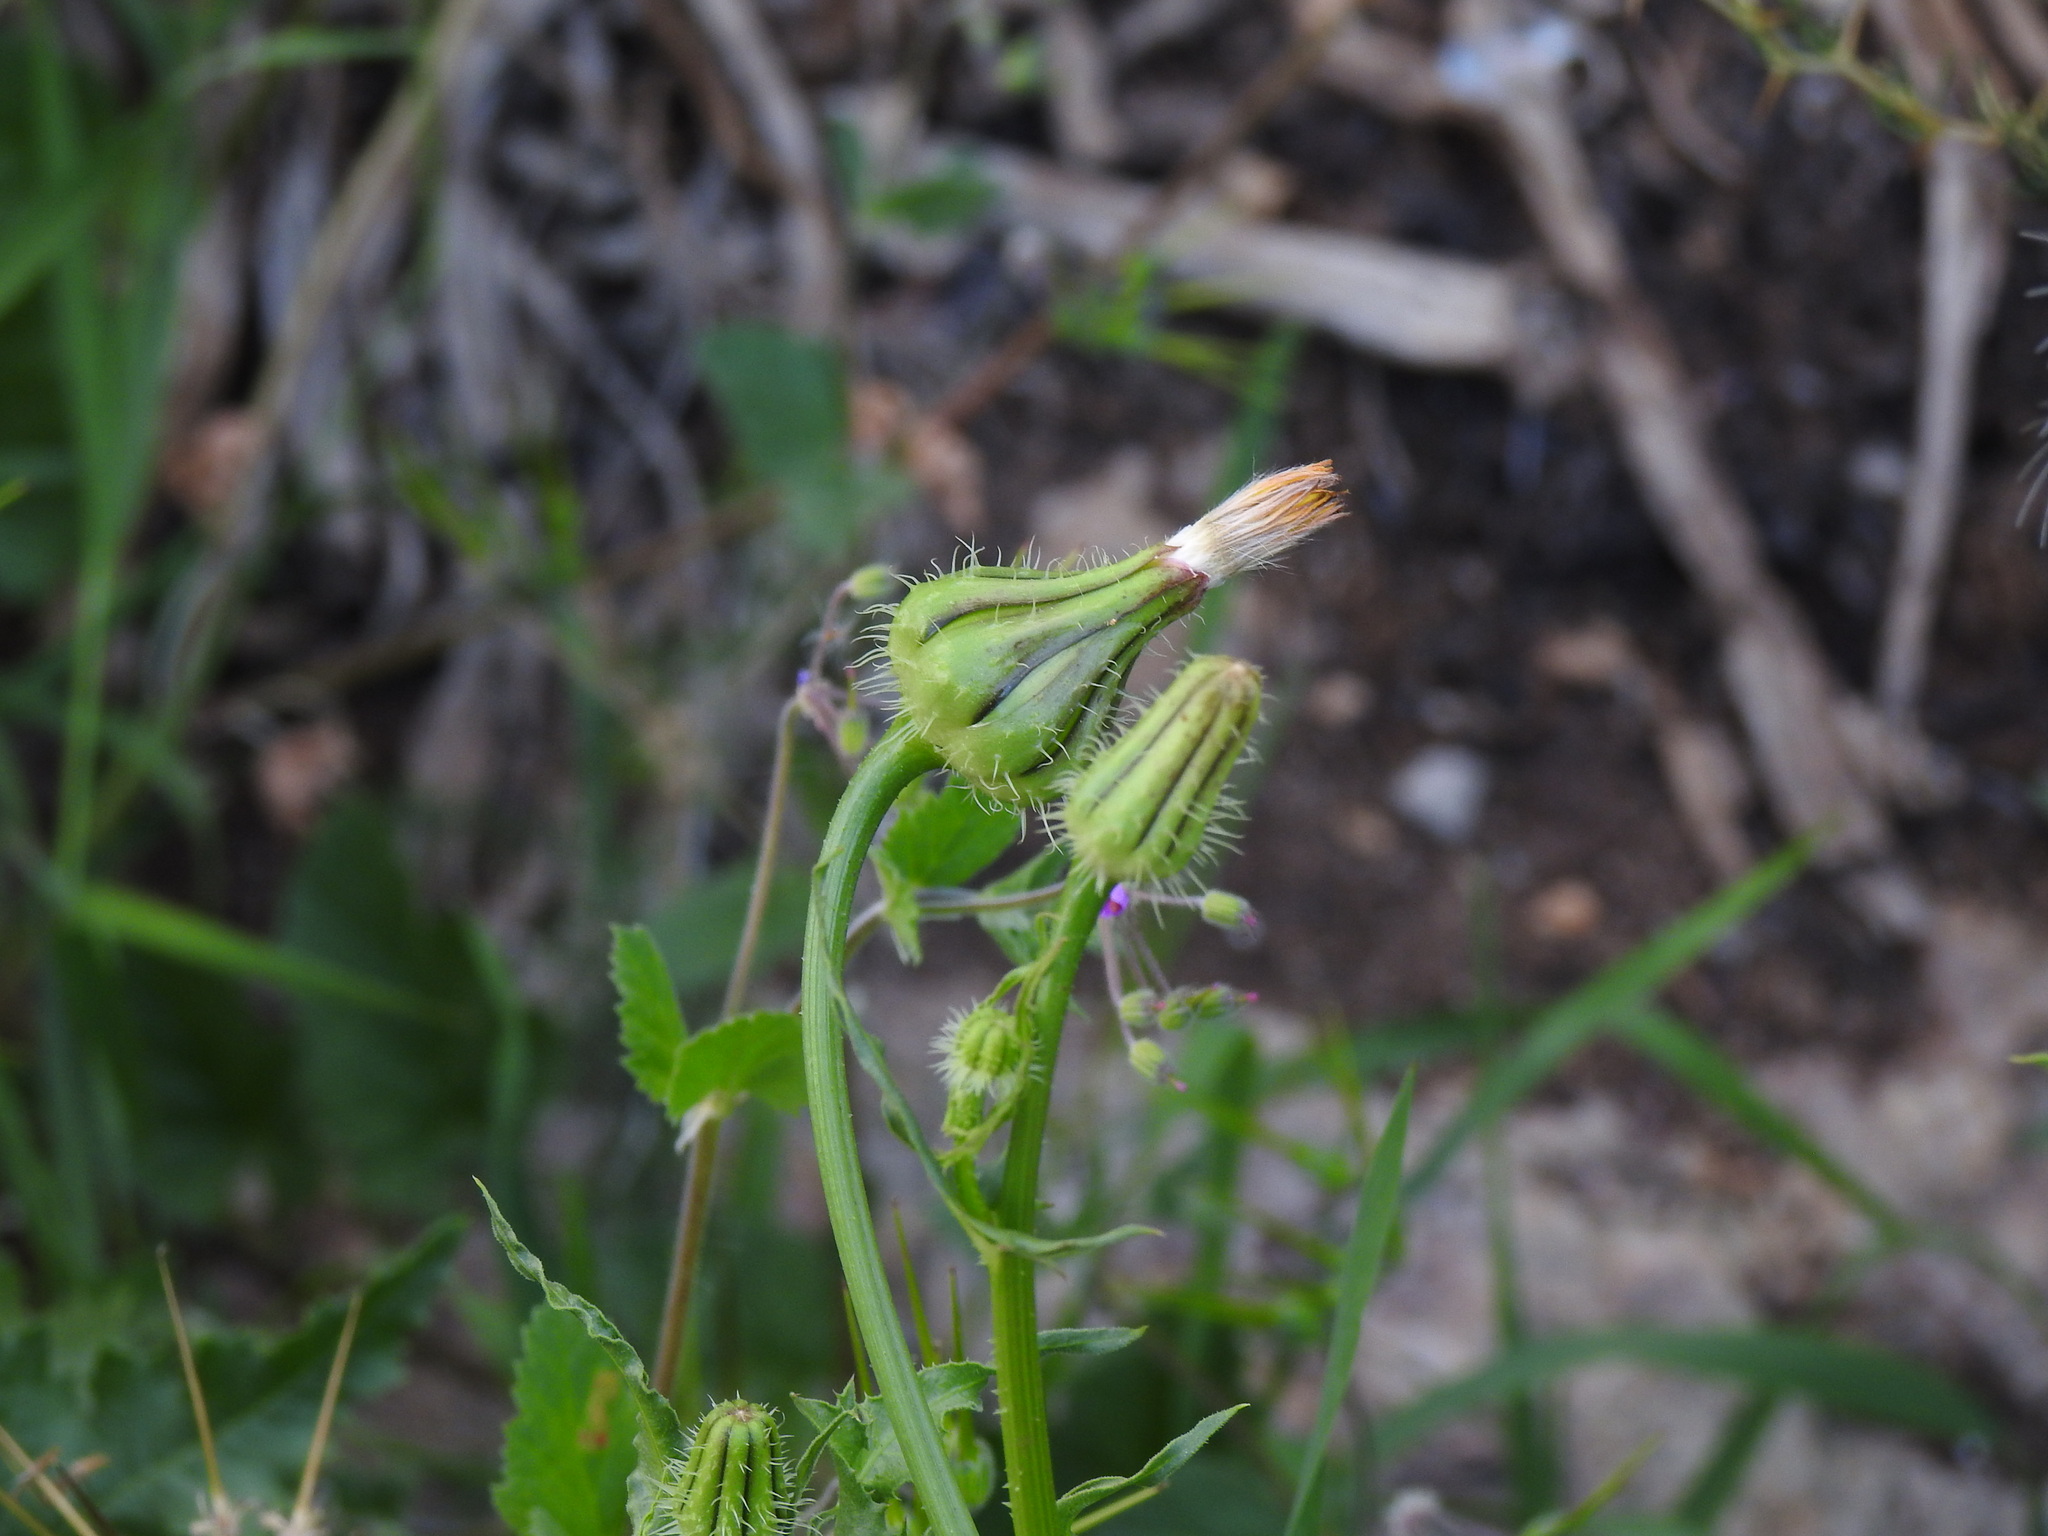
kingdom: Plantae
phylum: Tracheophyta
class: Magnoliopsida
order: Asterales
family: Asteraceae
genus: Urospermum
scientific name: Urospermum picroides
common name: False hawkbit
